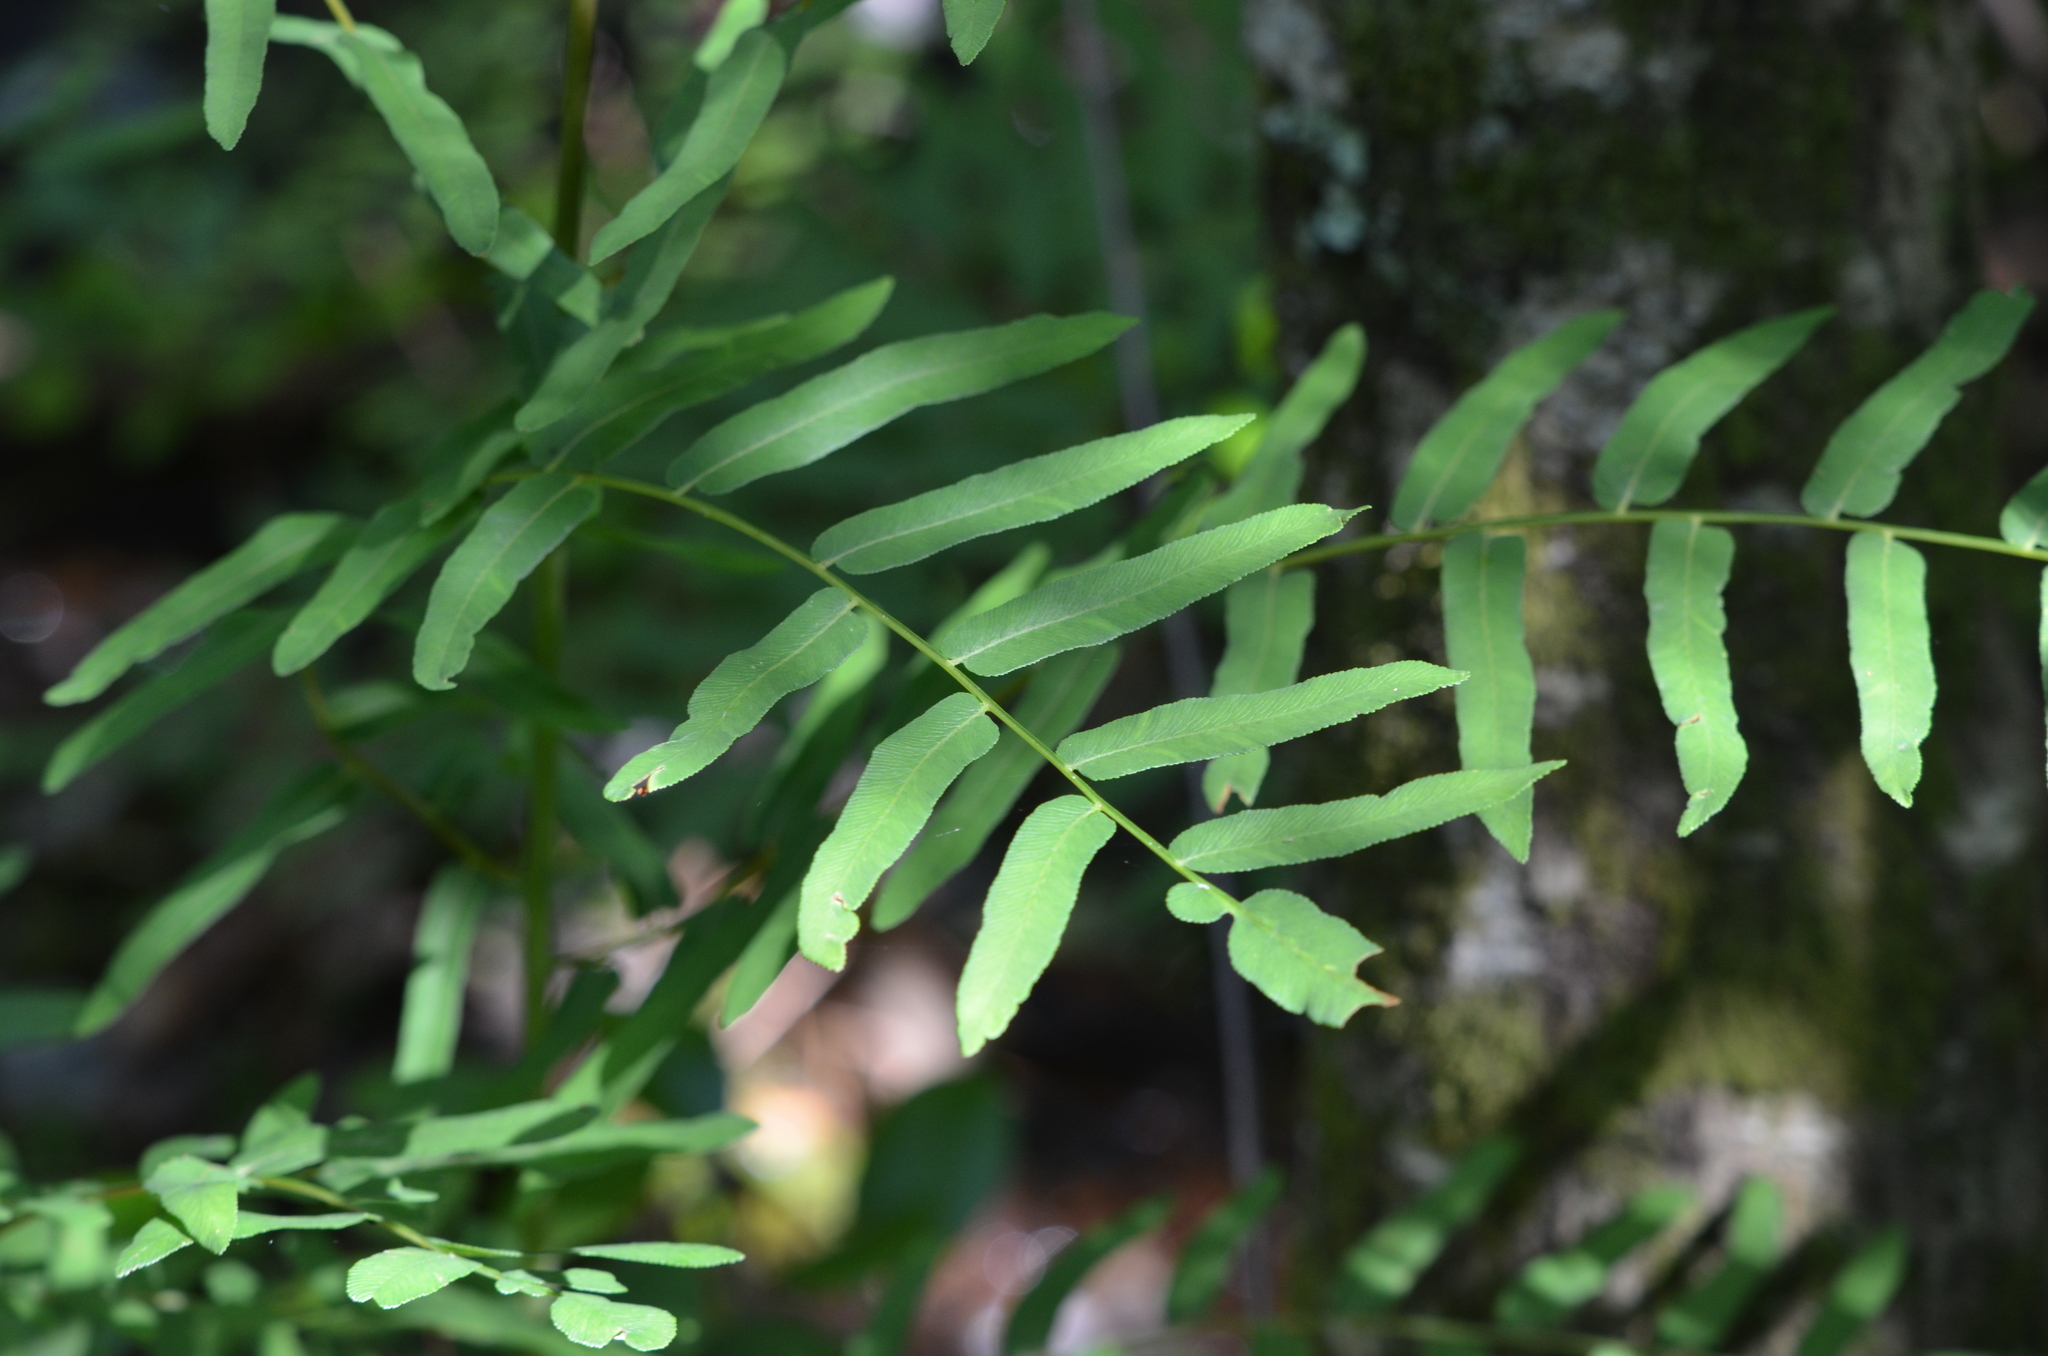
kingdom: Plantae
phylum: Tracheophyta
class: Polypodiopsida
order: Osmundales
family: Osmundaceae
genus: Osmunda
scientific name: Osmunda spectabilis
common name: American royal fern
